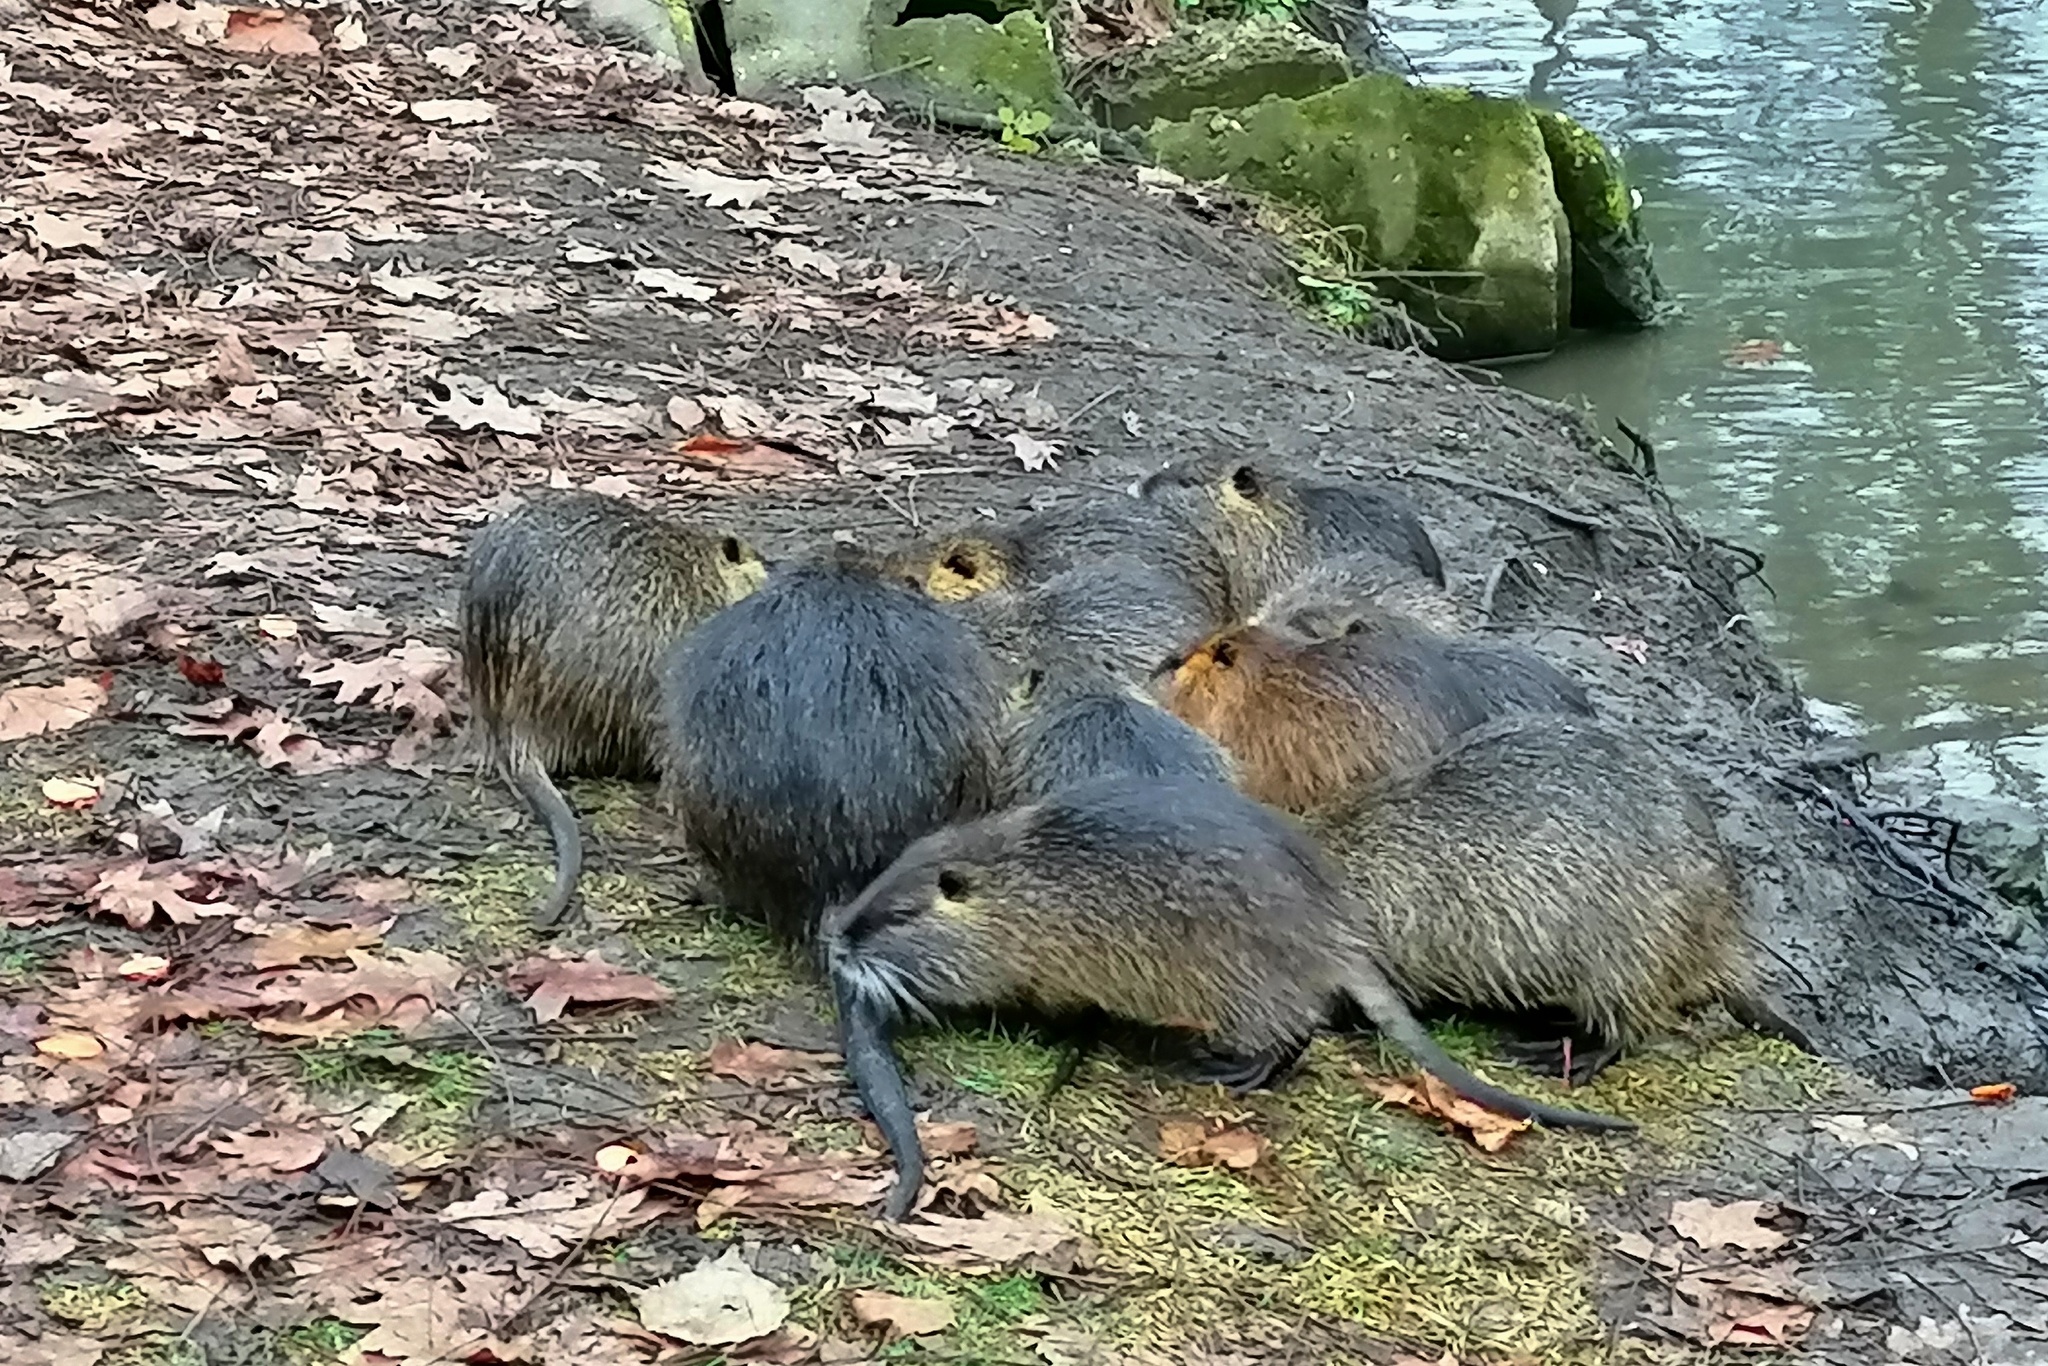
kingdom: Animalia
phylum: Chordata
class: Mammalia
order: Rodentia
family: Myocastoridae
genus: Myocastor
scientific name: Myocastor coypus
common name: Coypu
